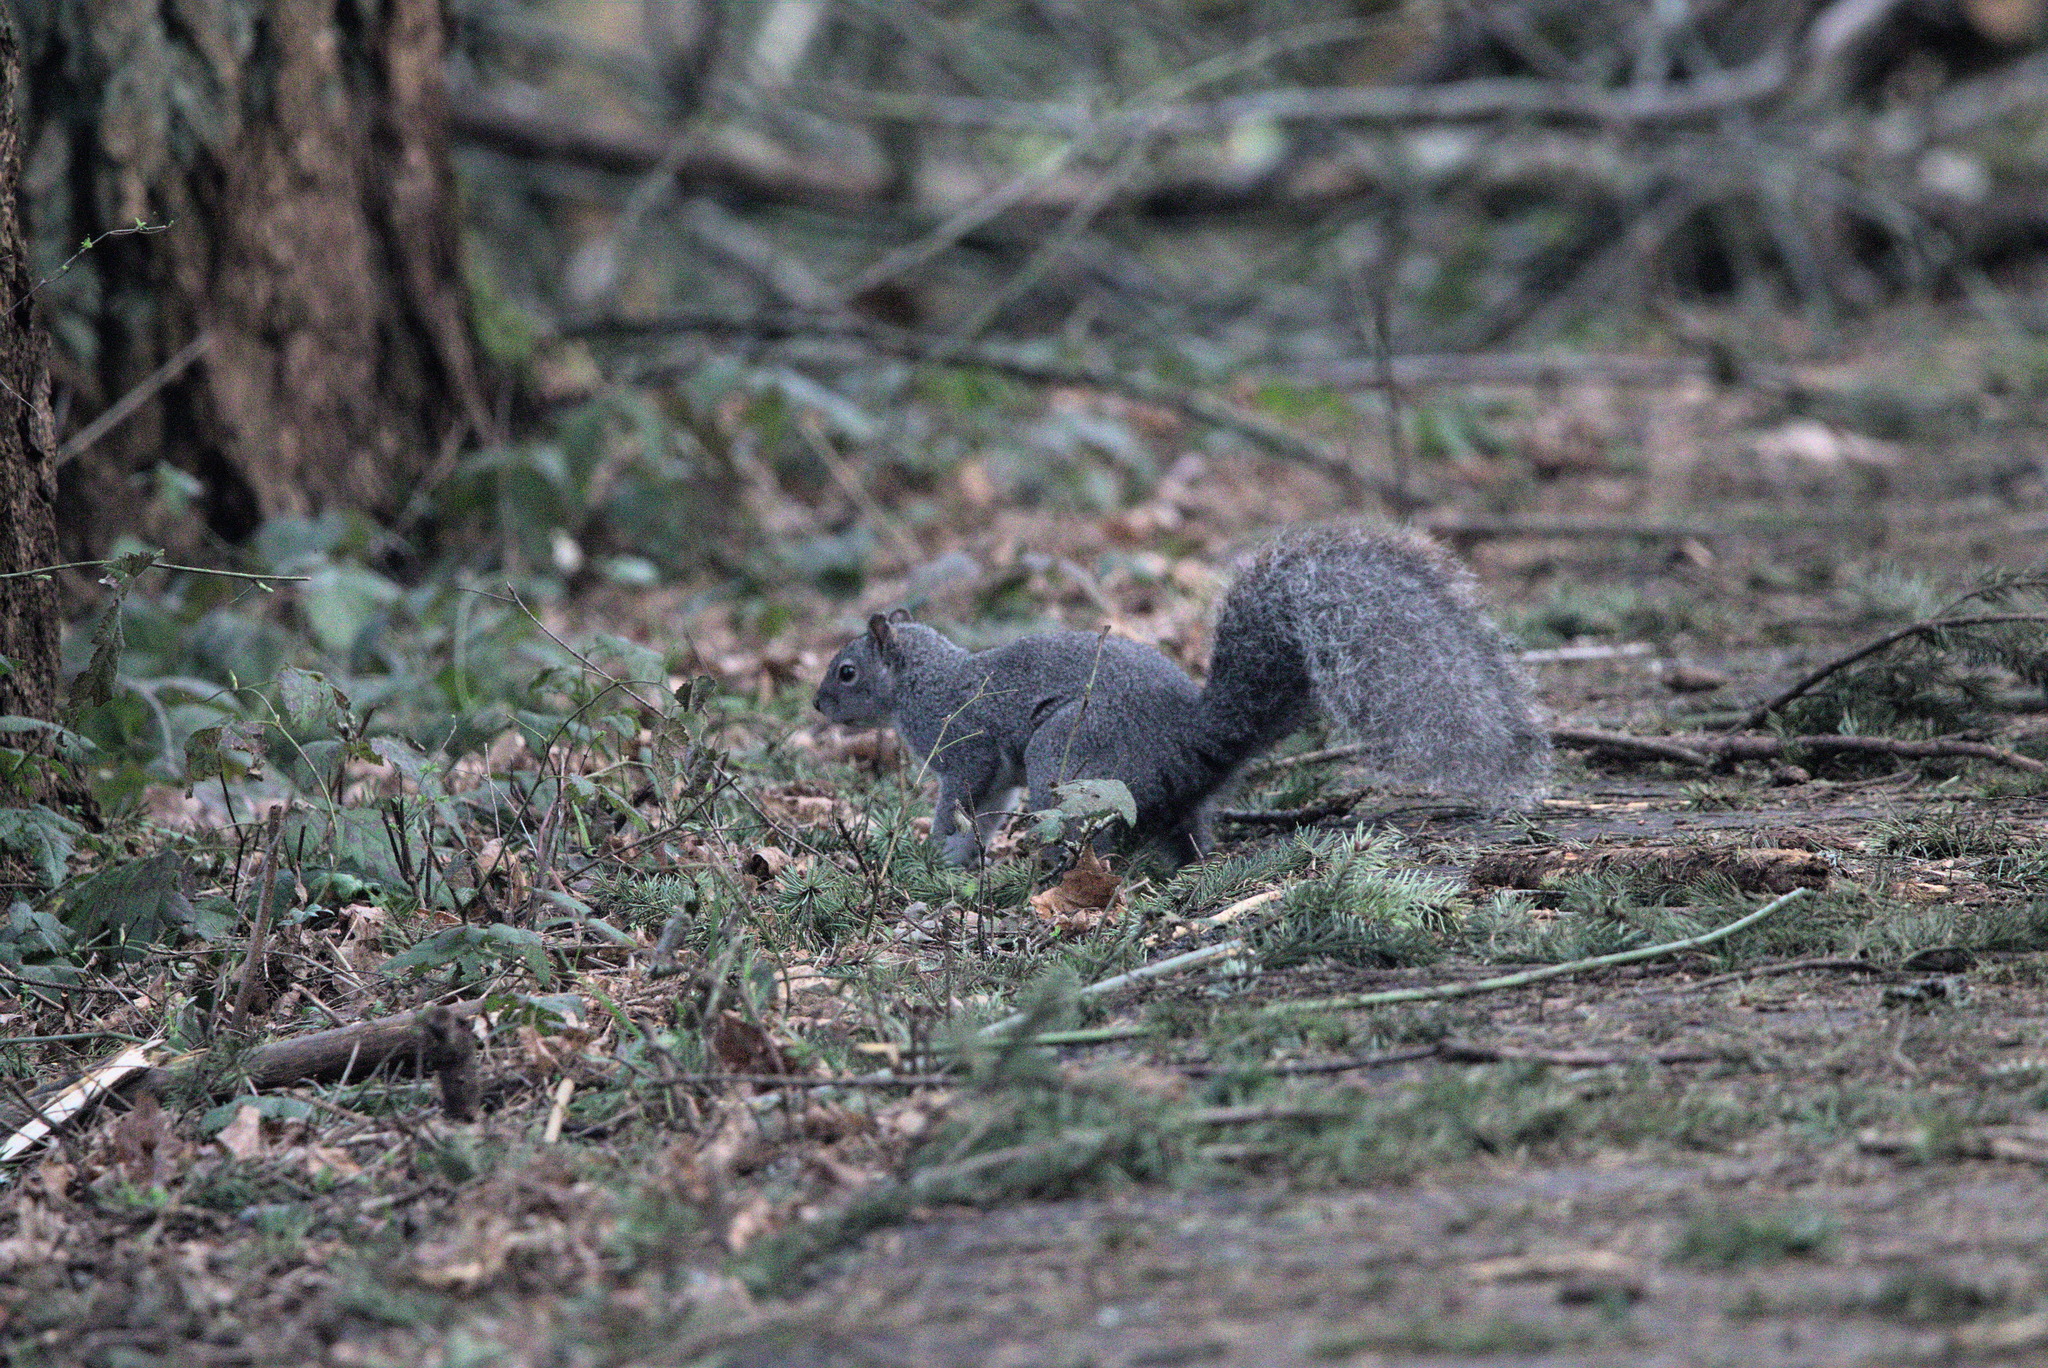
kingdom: Animalia
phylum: Chordata
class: Mammalia
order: Rodentia
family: Sciuridae
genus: Sciurus
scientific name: Sciurus griseus
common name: Western gray squirrel
